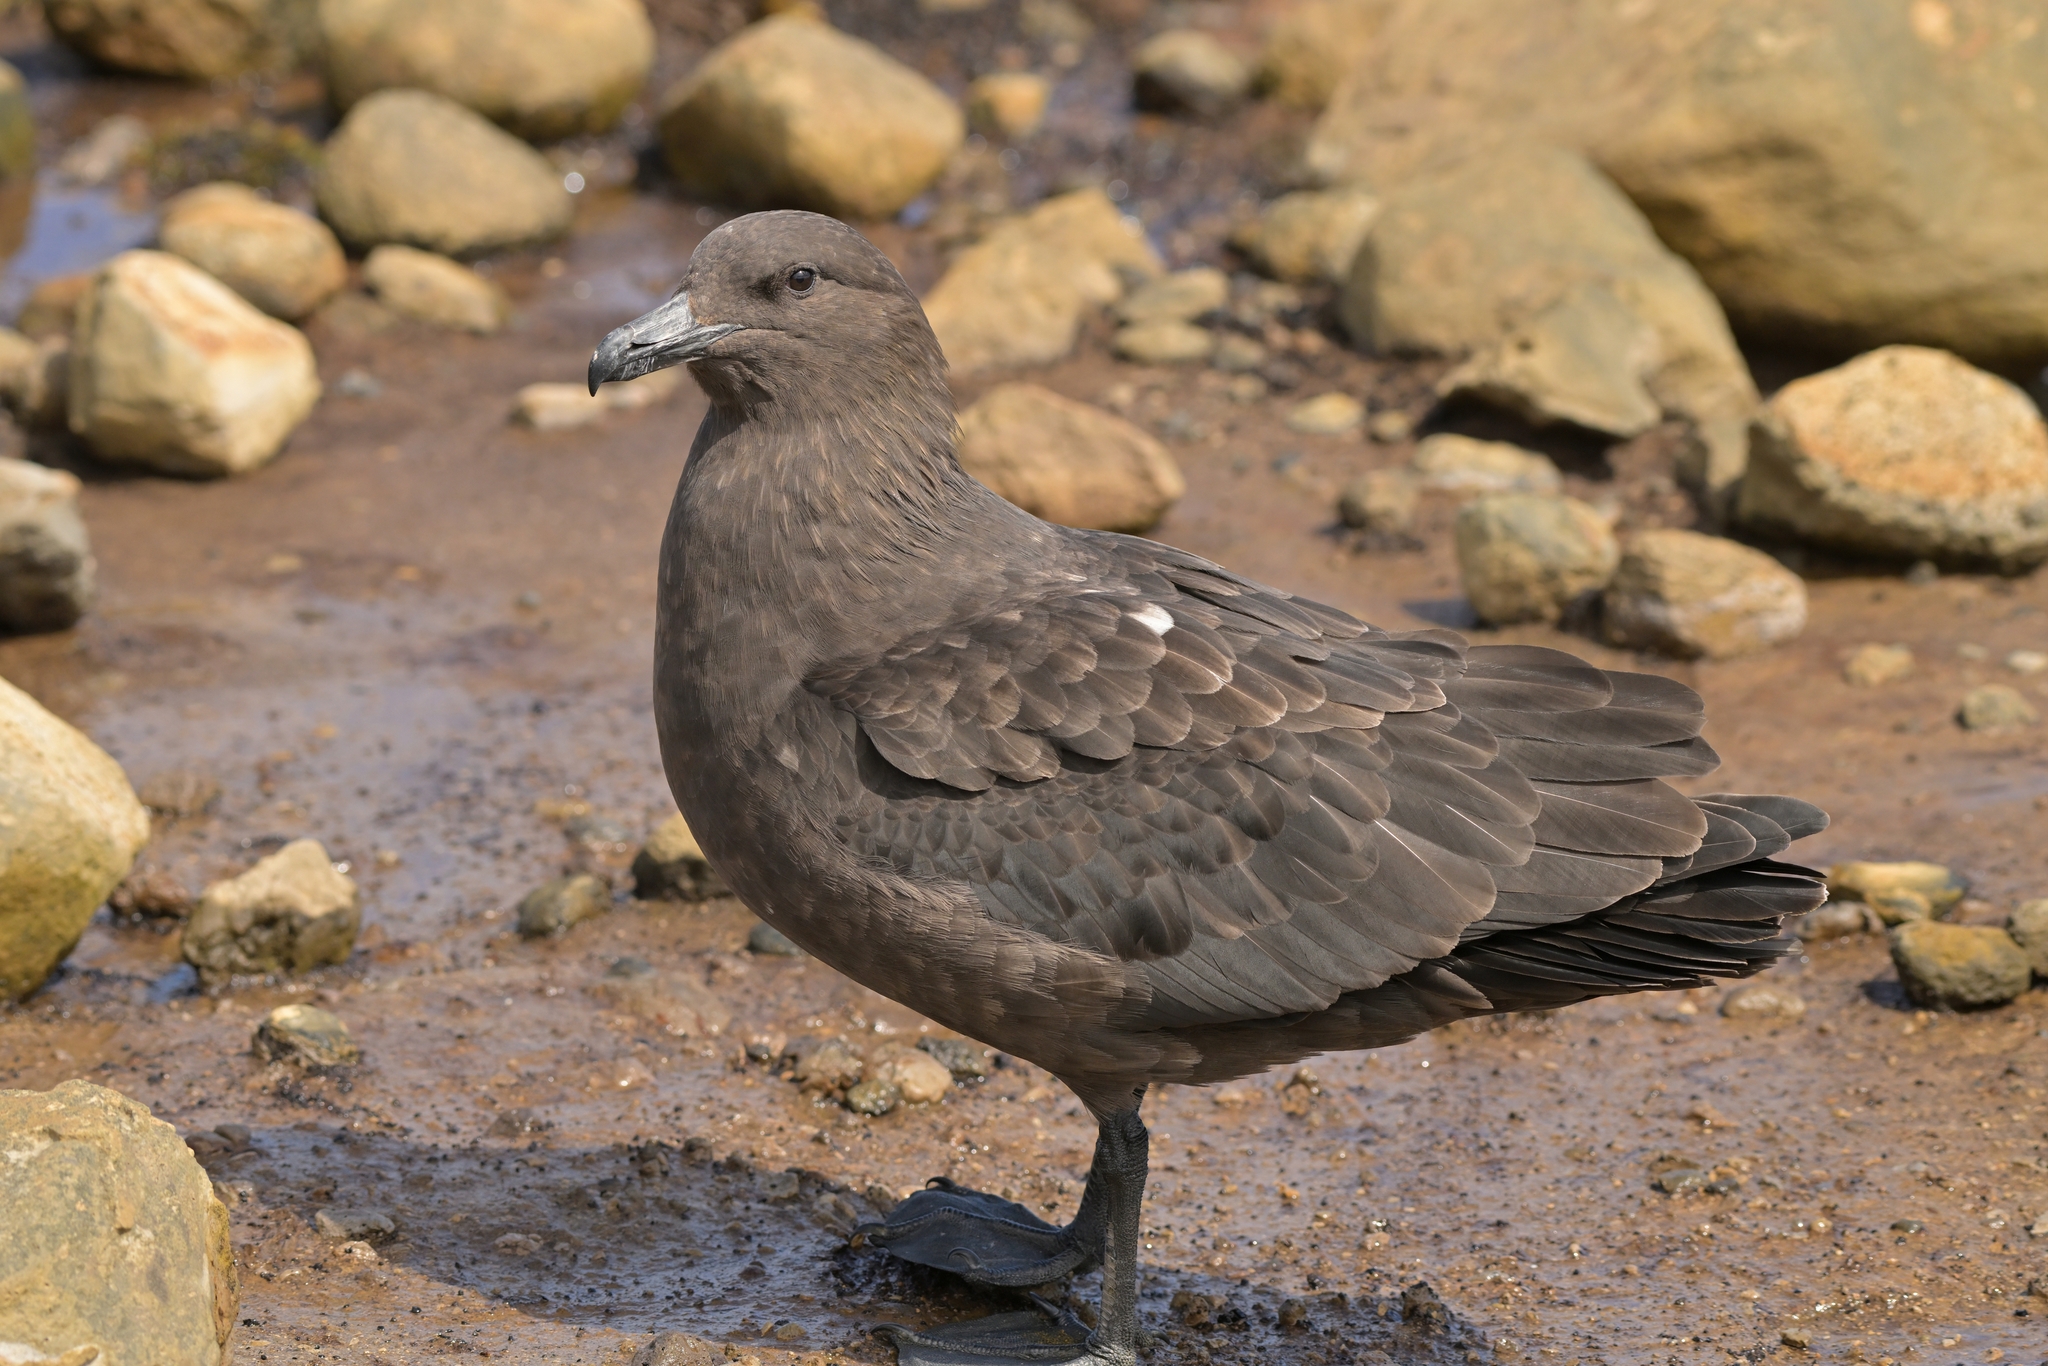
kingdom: Animalia
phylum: Chordata
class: Aves
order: Charadriiformes
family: Stercorariidae
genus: Stercorarius
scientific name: Stercorarius antarcticus
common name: Brown skua
